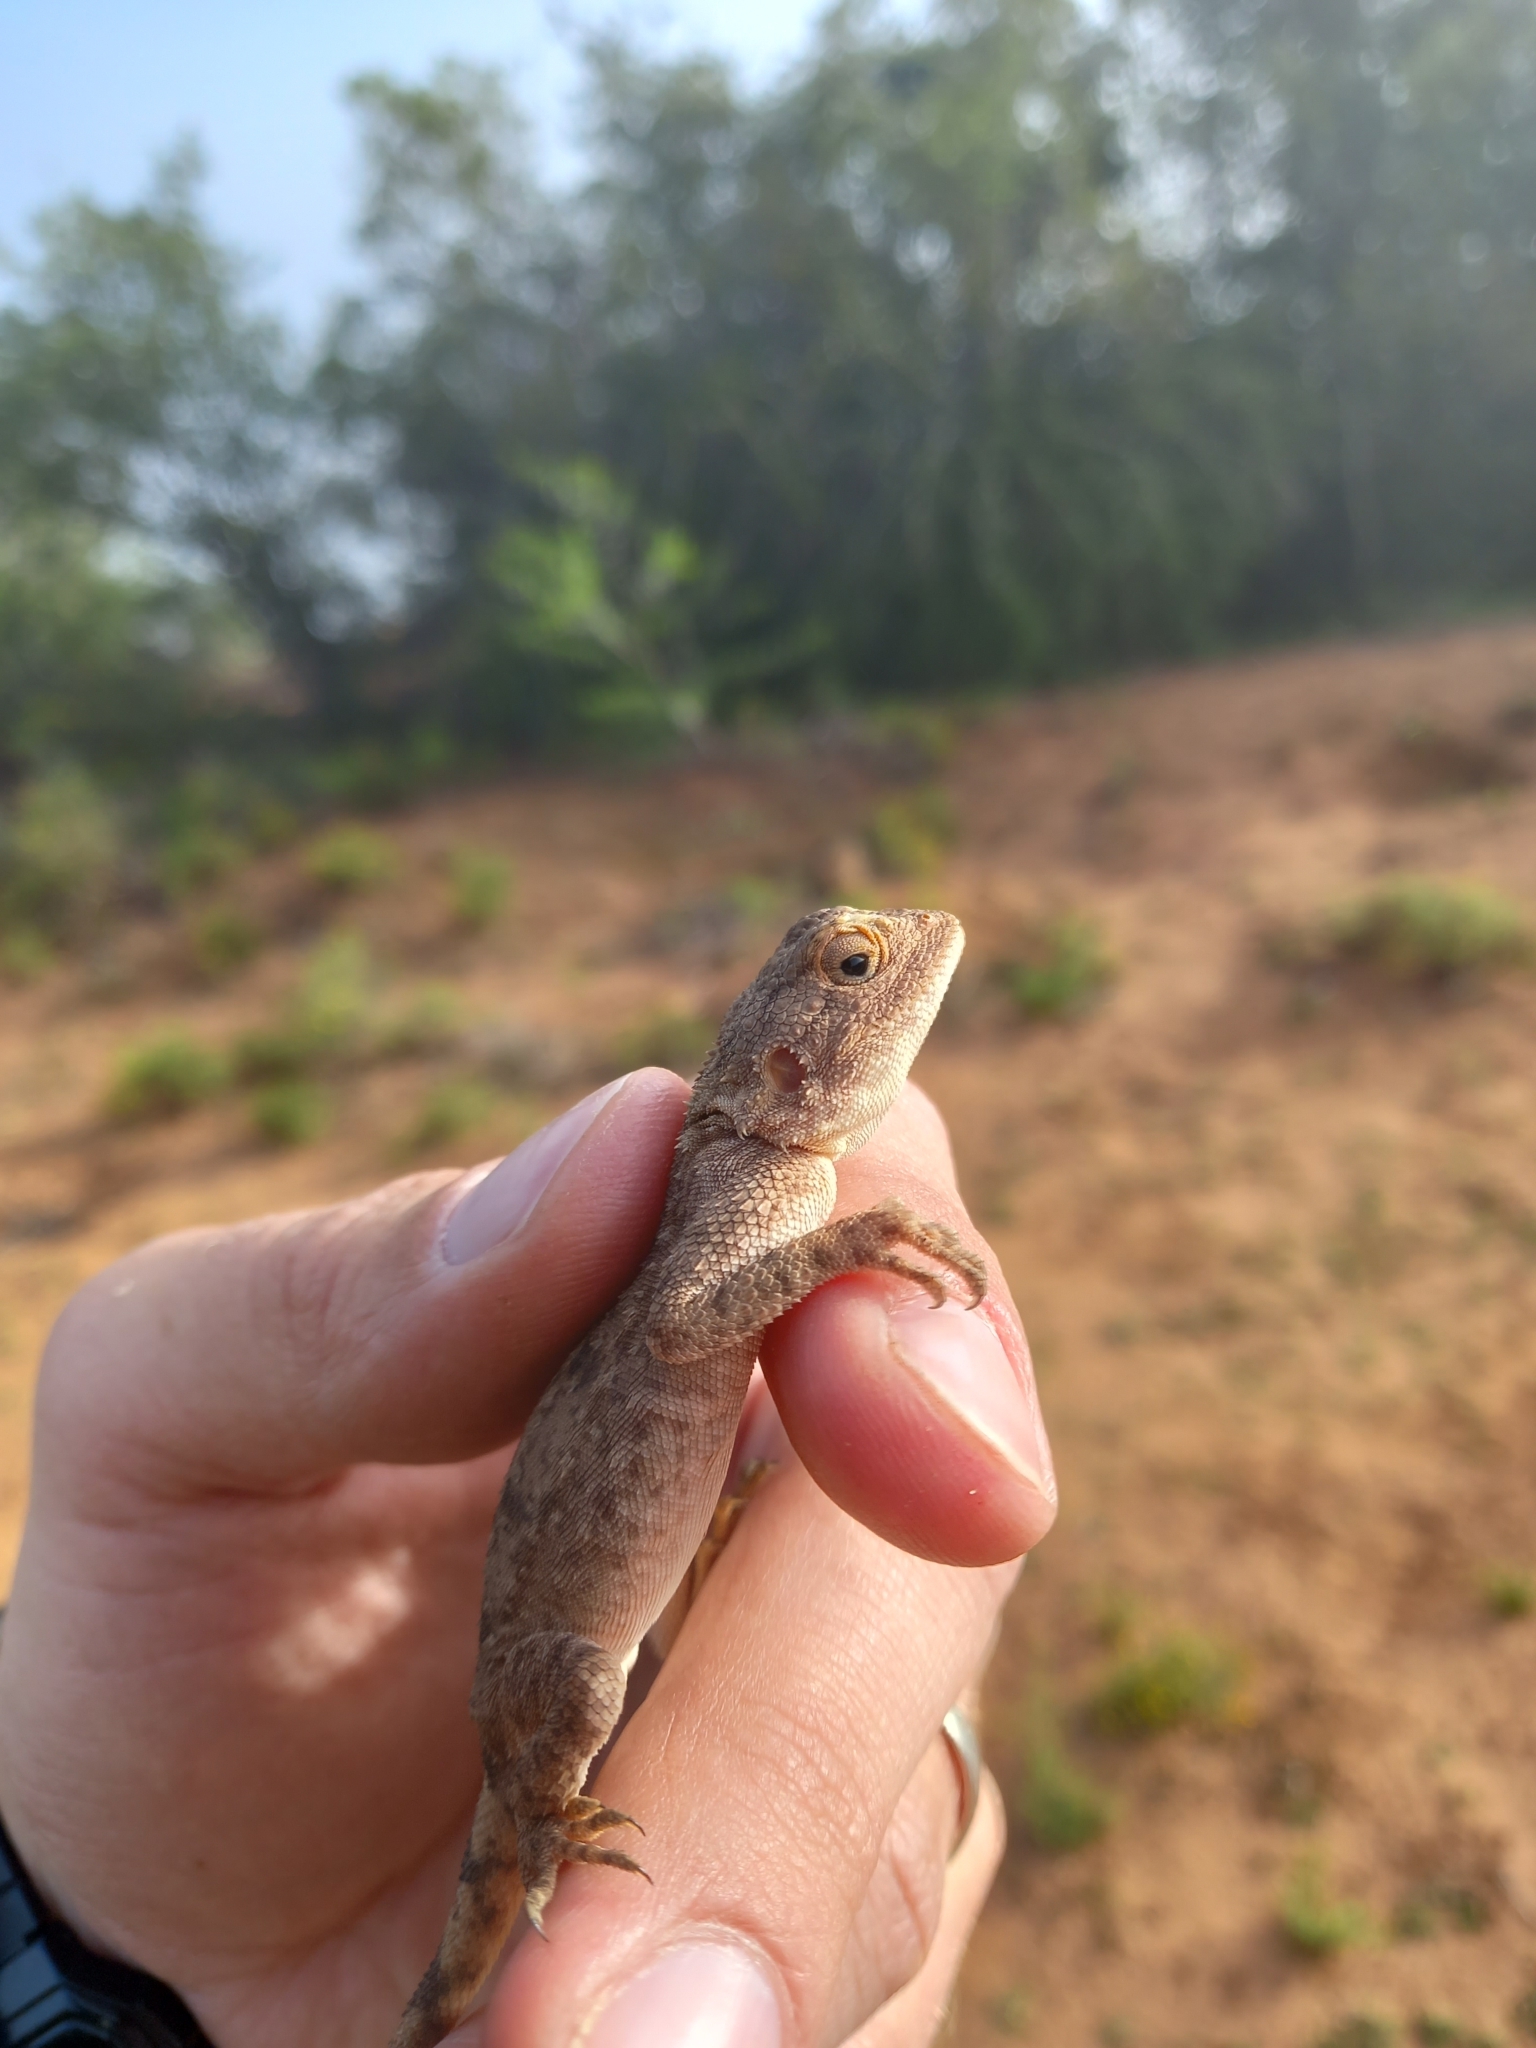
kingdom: Animalia
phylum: Chordata
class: Squamata
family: Agamidae
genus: Agama
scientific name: Agama atra
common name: Southern african rock agama
